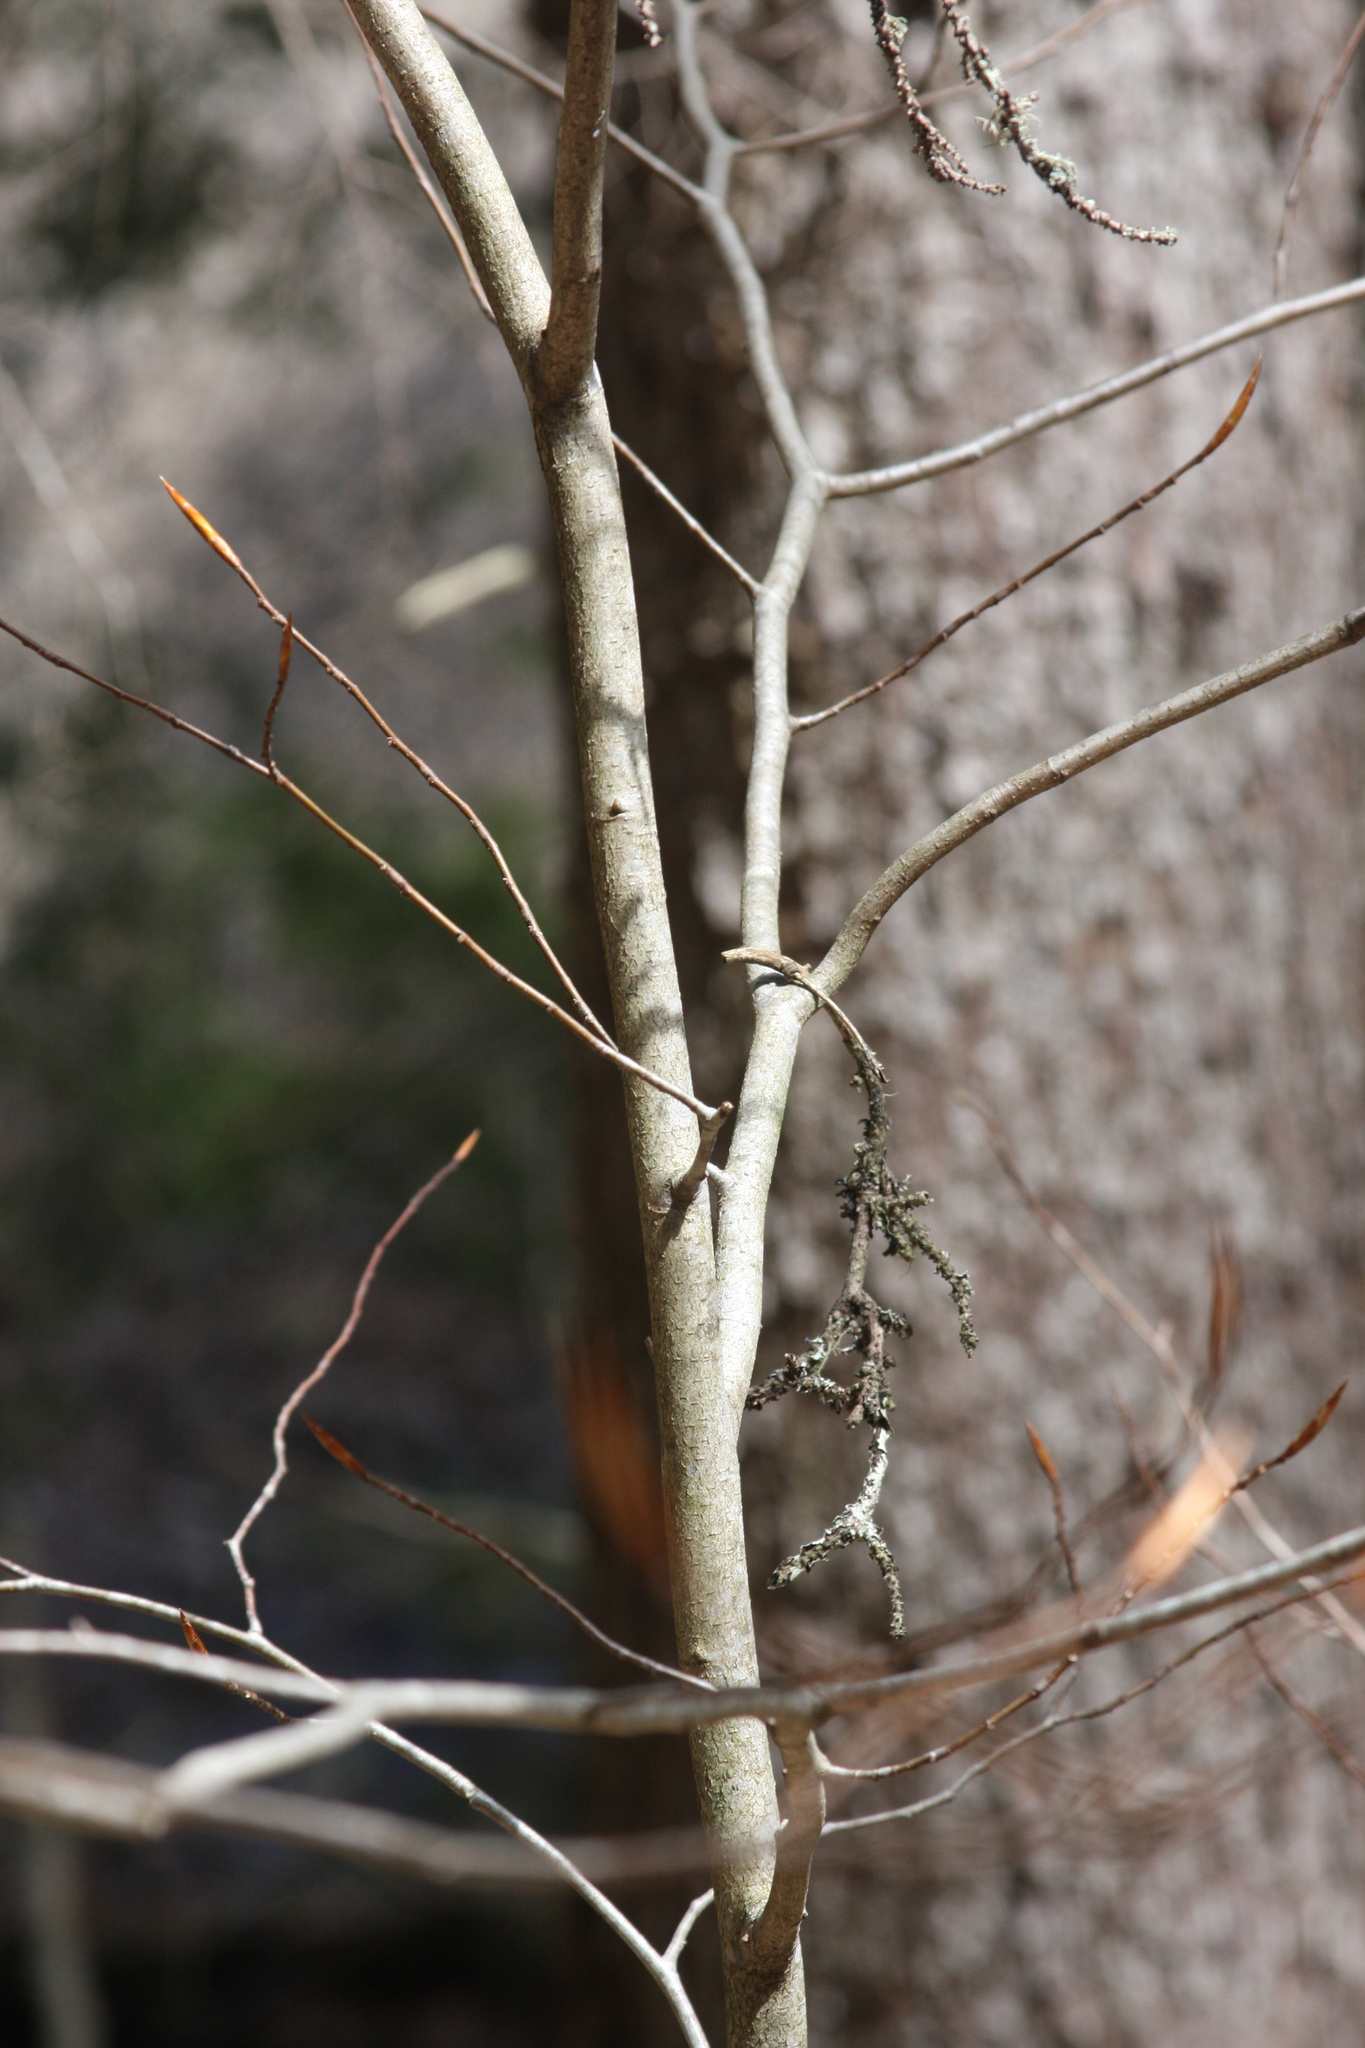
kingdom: Plantae
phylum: Tracheophyta
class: Magnoliopsida
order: Fagales
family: Fagaceae
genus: Fagus
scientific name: Fagus grandifolia
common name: American beech
